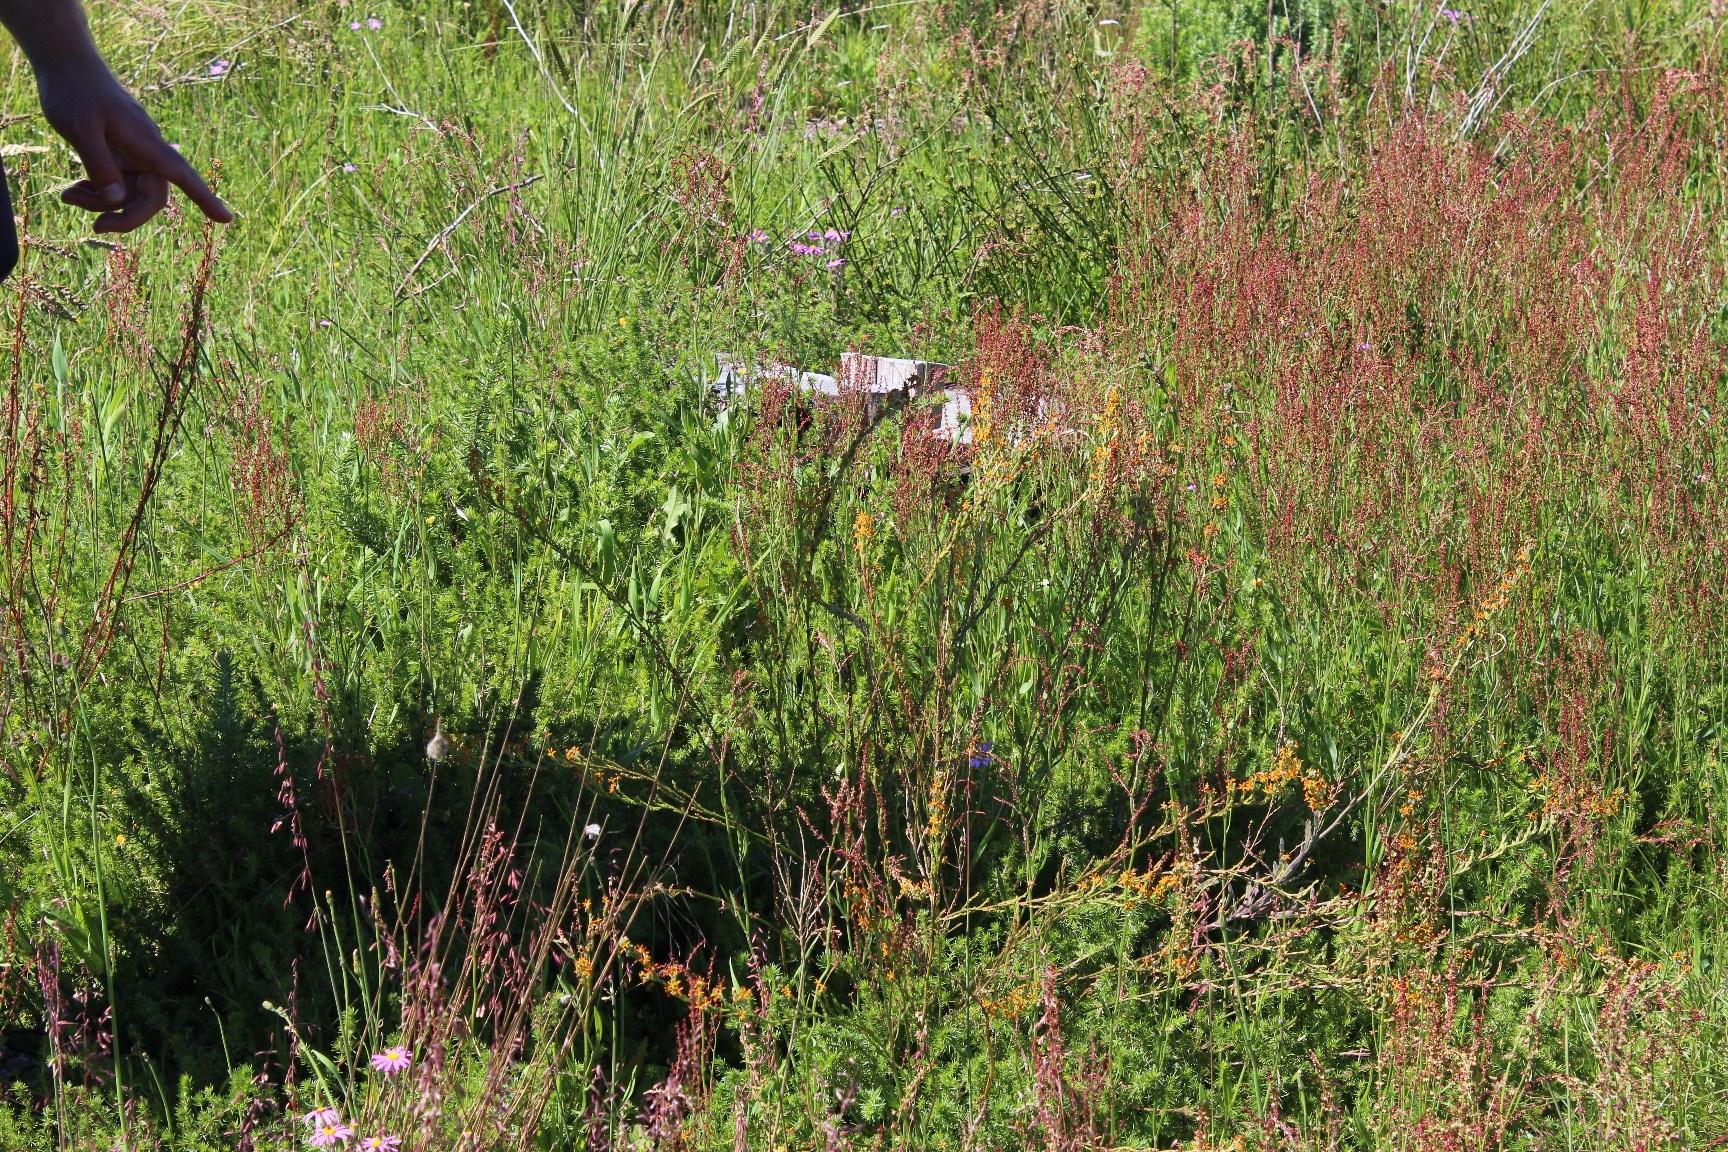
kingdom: Plantae
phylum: Tracheophyta
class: Magnoliopsida
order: Lamiales
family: Scrophulariaceae
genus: Manulea
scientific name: Manulea rubra
